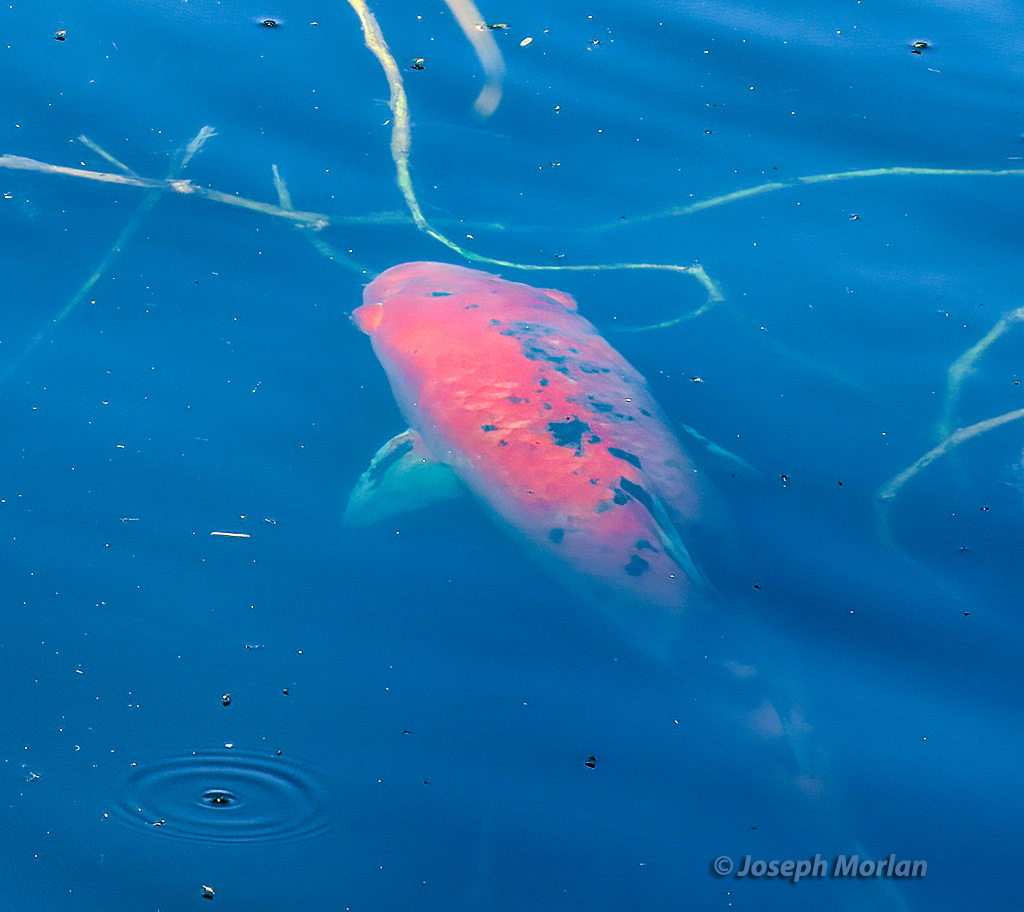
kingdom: Animalia
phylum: Chordata
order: Cypriniformes
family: Cyprinidae
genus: Cyprinus
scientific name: Cyprinus rubrofuscus
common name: Koi
